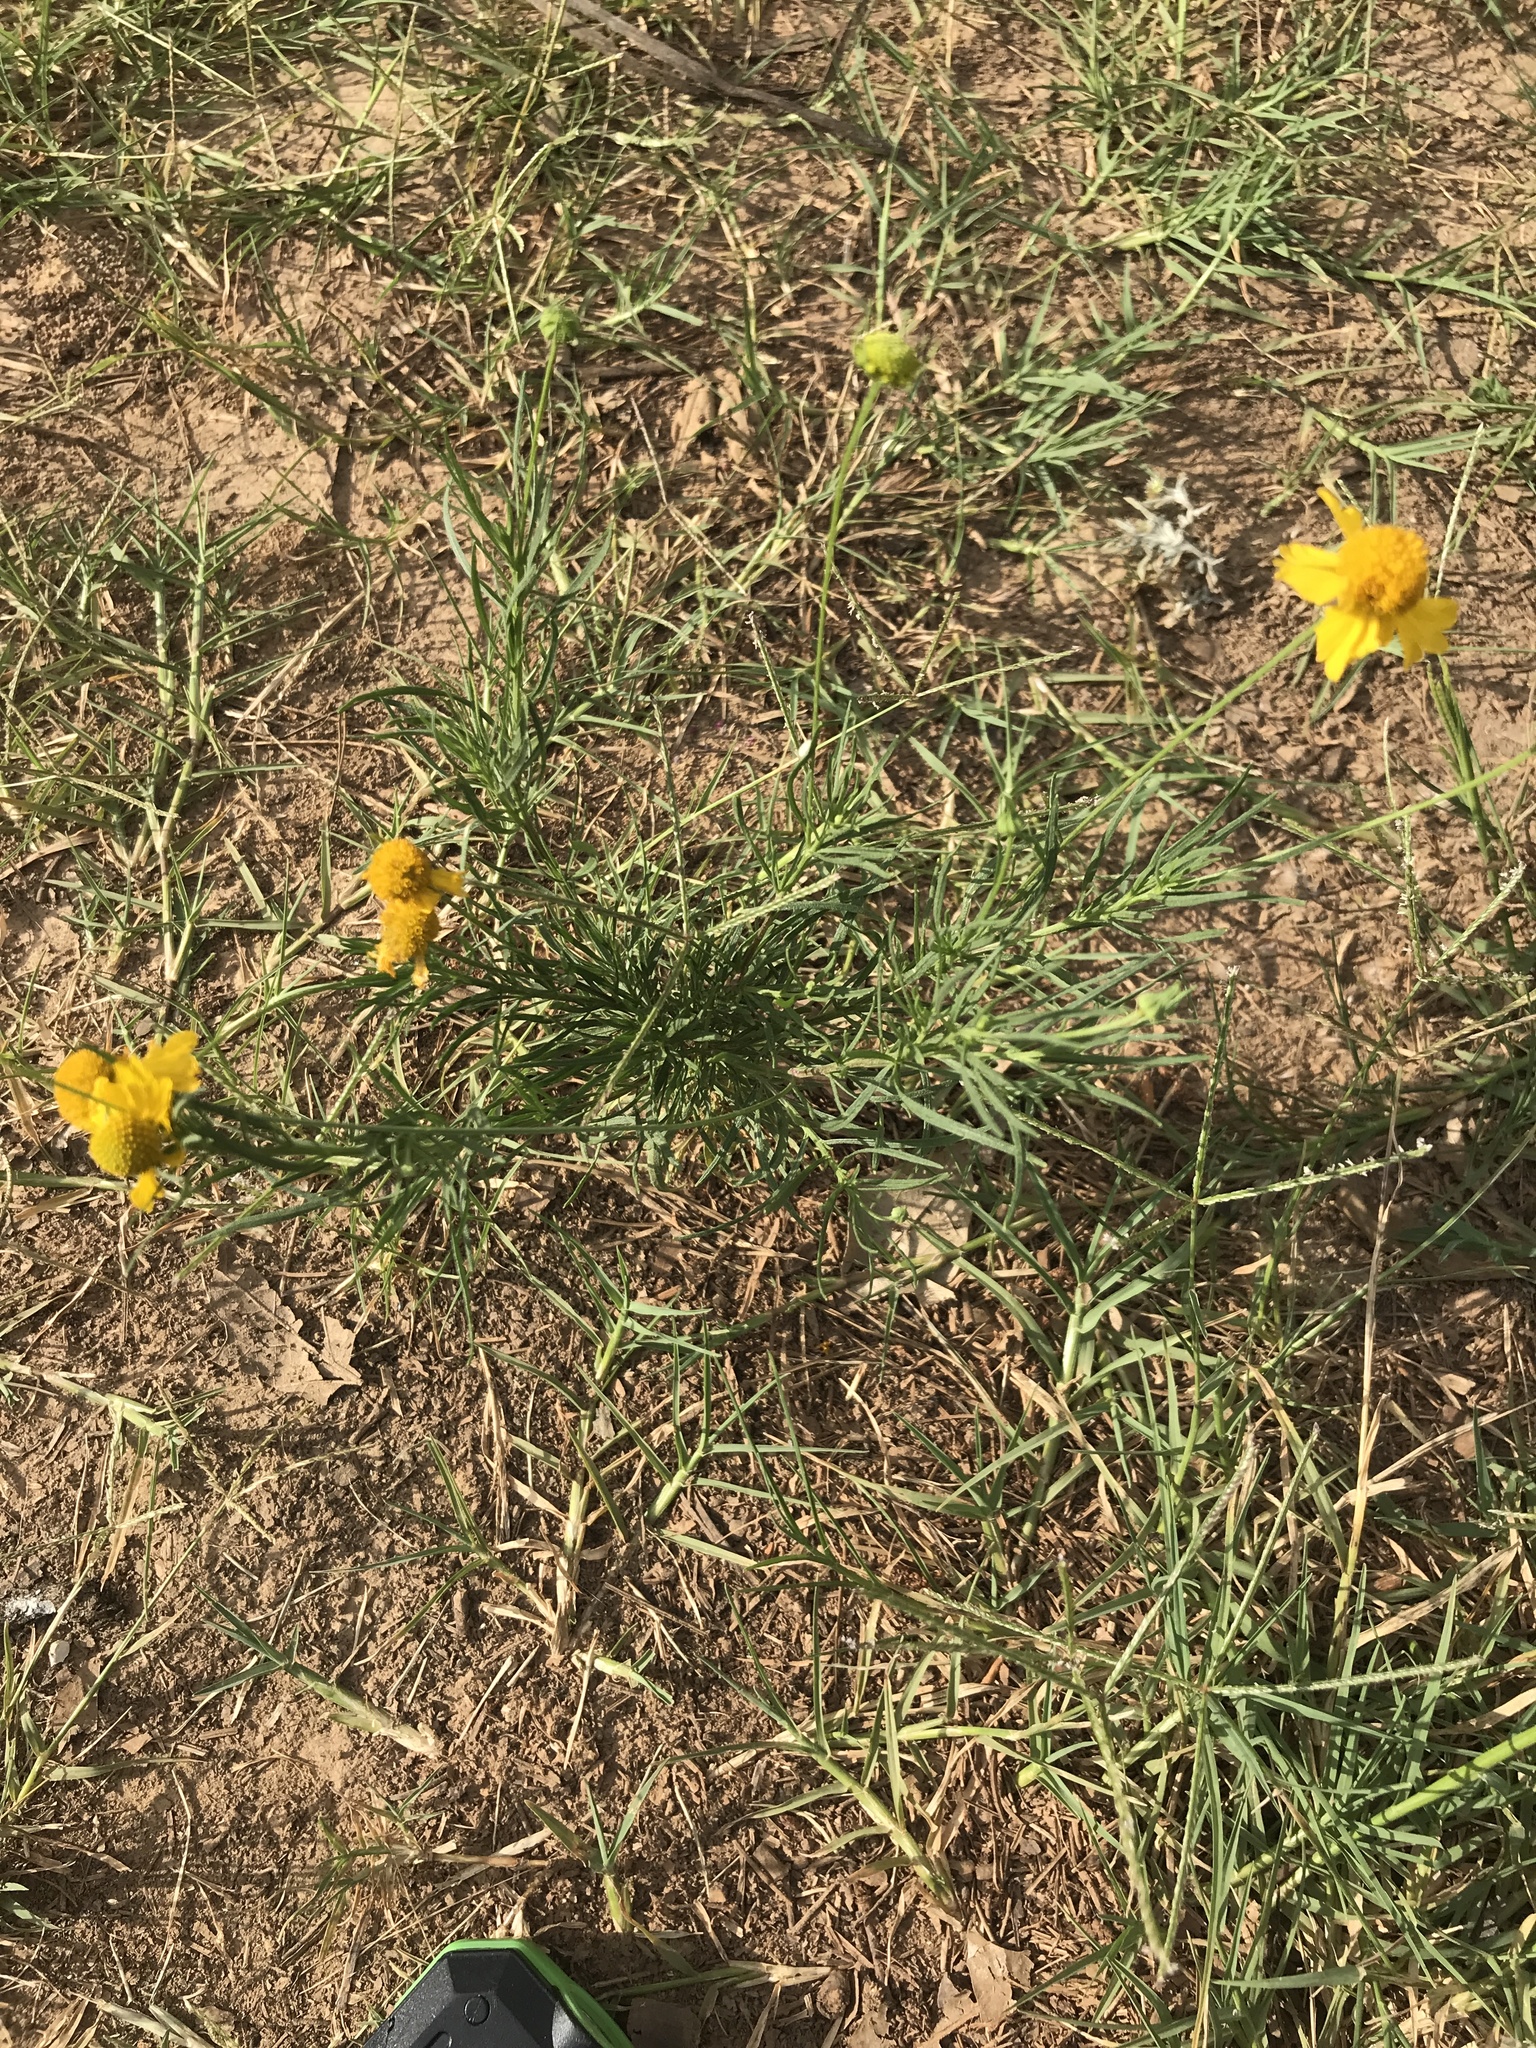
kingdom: Plantae
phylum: Tracheophyta
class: Magnoliopsida
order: Asterales
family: Asteraceae
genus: Helenium
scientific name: Helenium amarum
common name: Bitter sneezeweed
